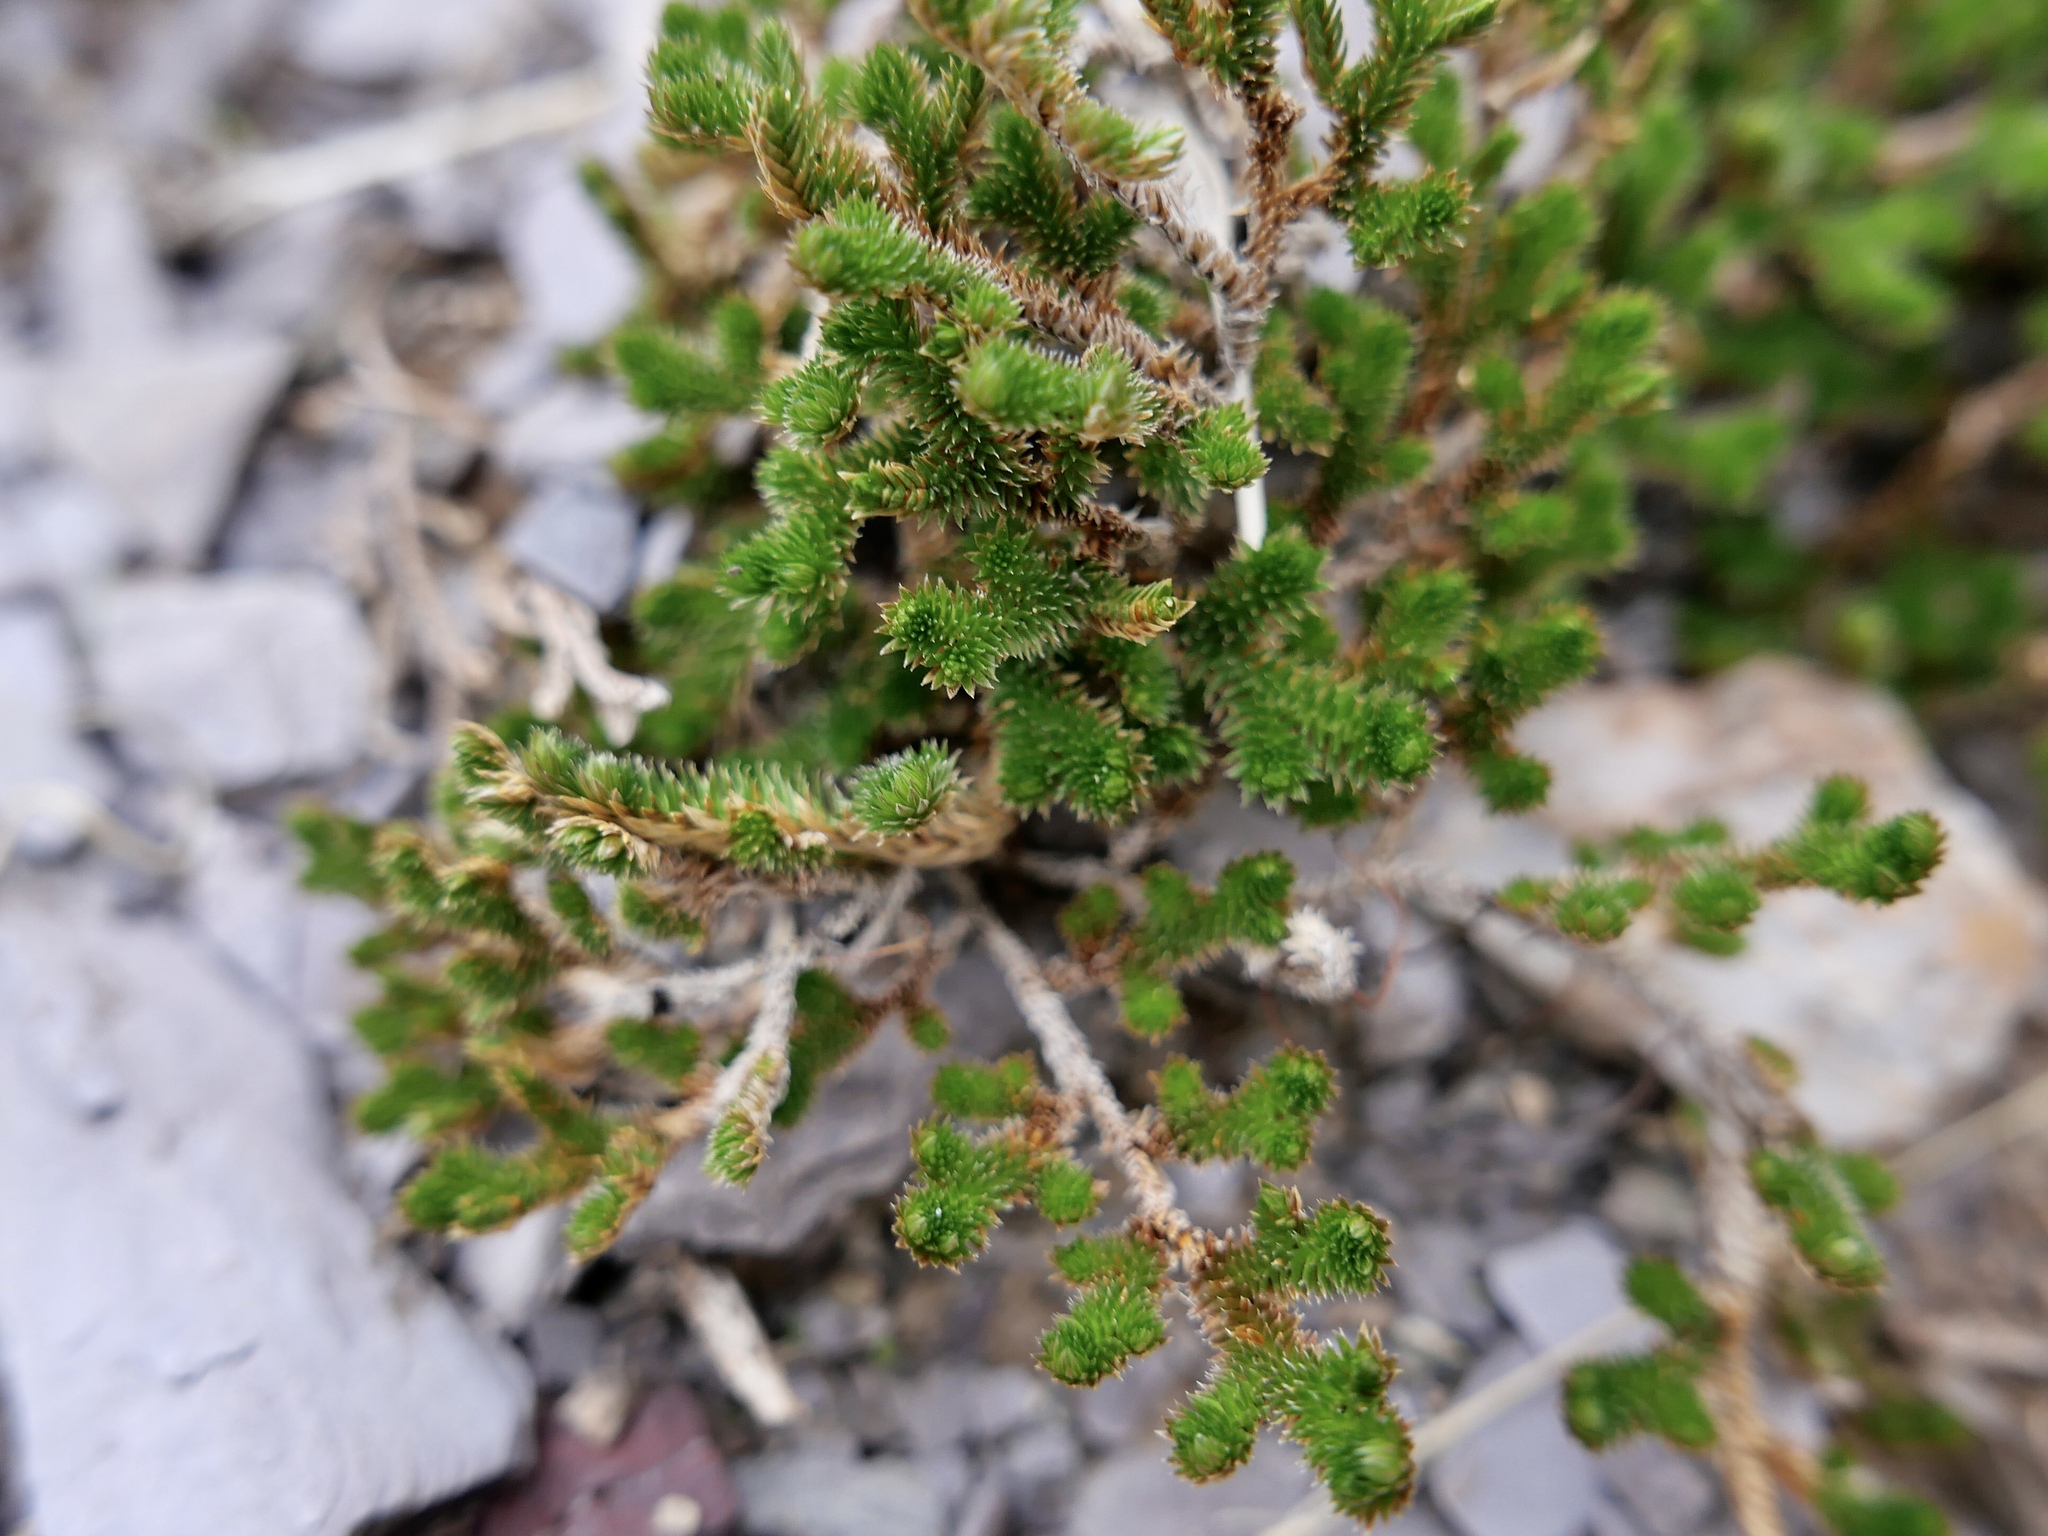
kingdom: Plantae
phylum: Tracheophyta
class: Lycopodiopsida
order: Selaginellales
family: Selaginellaceae
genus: Selaginella
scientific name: Selaginella arizonica
